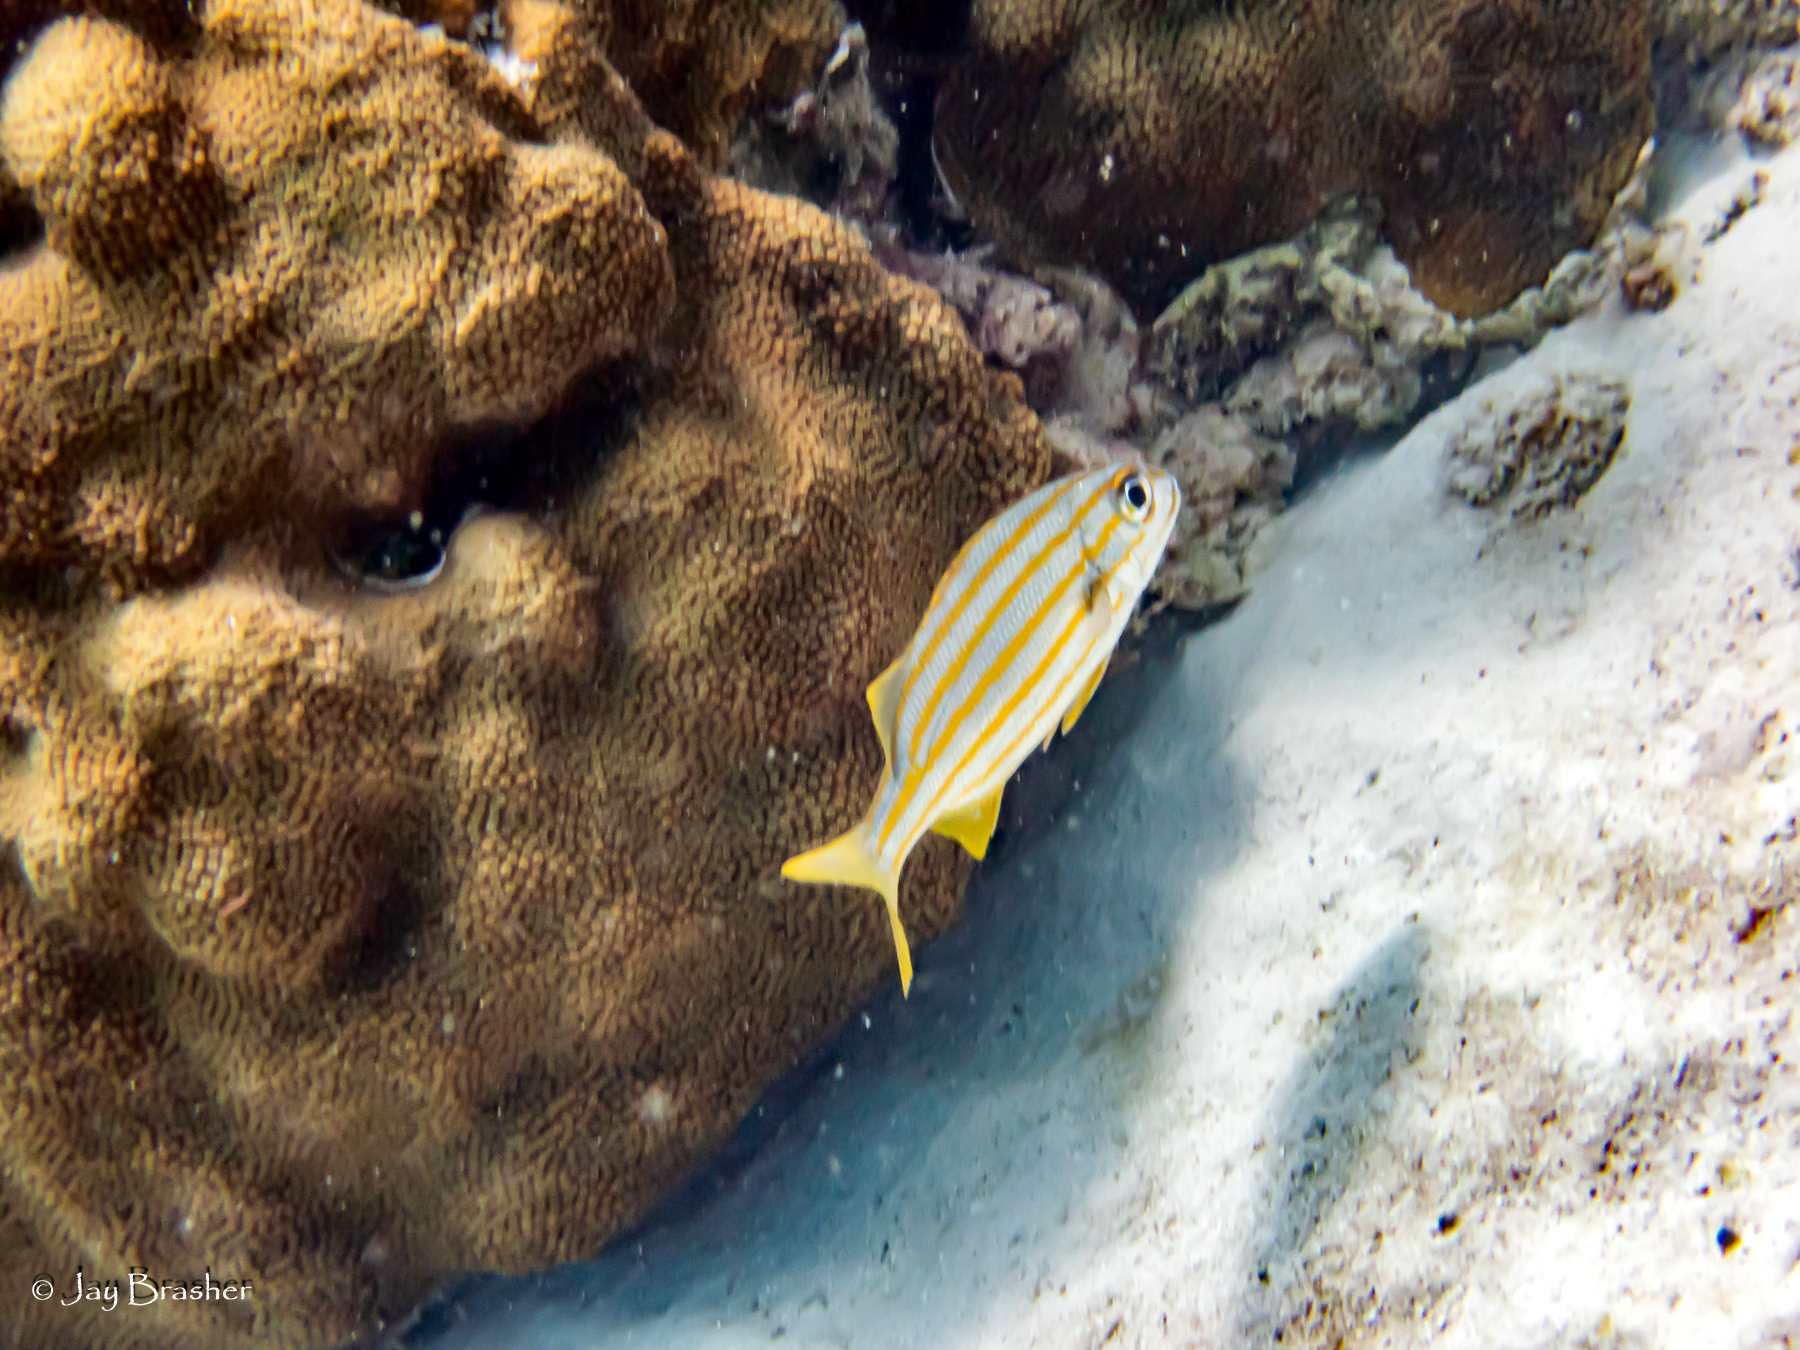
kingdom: Animalia
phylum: Cnidaria
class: Anthozoa
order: Scleractinia
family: Merulinidae
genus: Orbicella
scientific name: Orbicella faveolata
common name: Mountainous star coral
